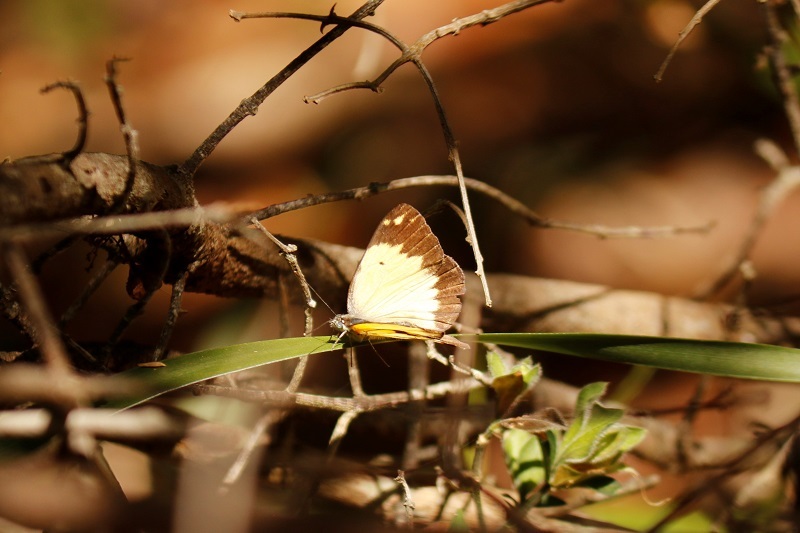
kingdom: Animalia
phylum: Arthropoda
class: Insecta
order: Lepidoptera
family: Pieridae
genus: Belenois
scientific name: Belenois creona
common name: African caper white
